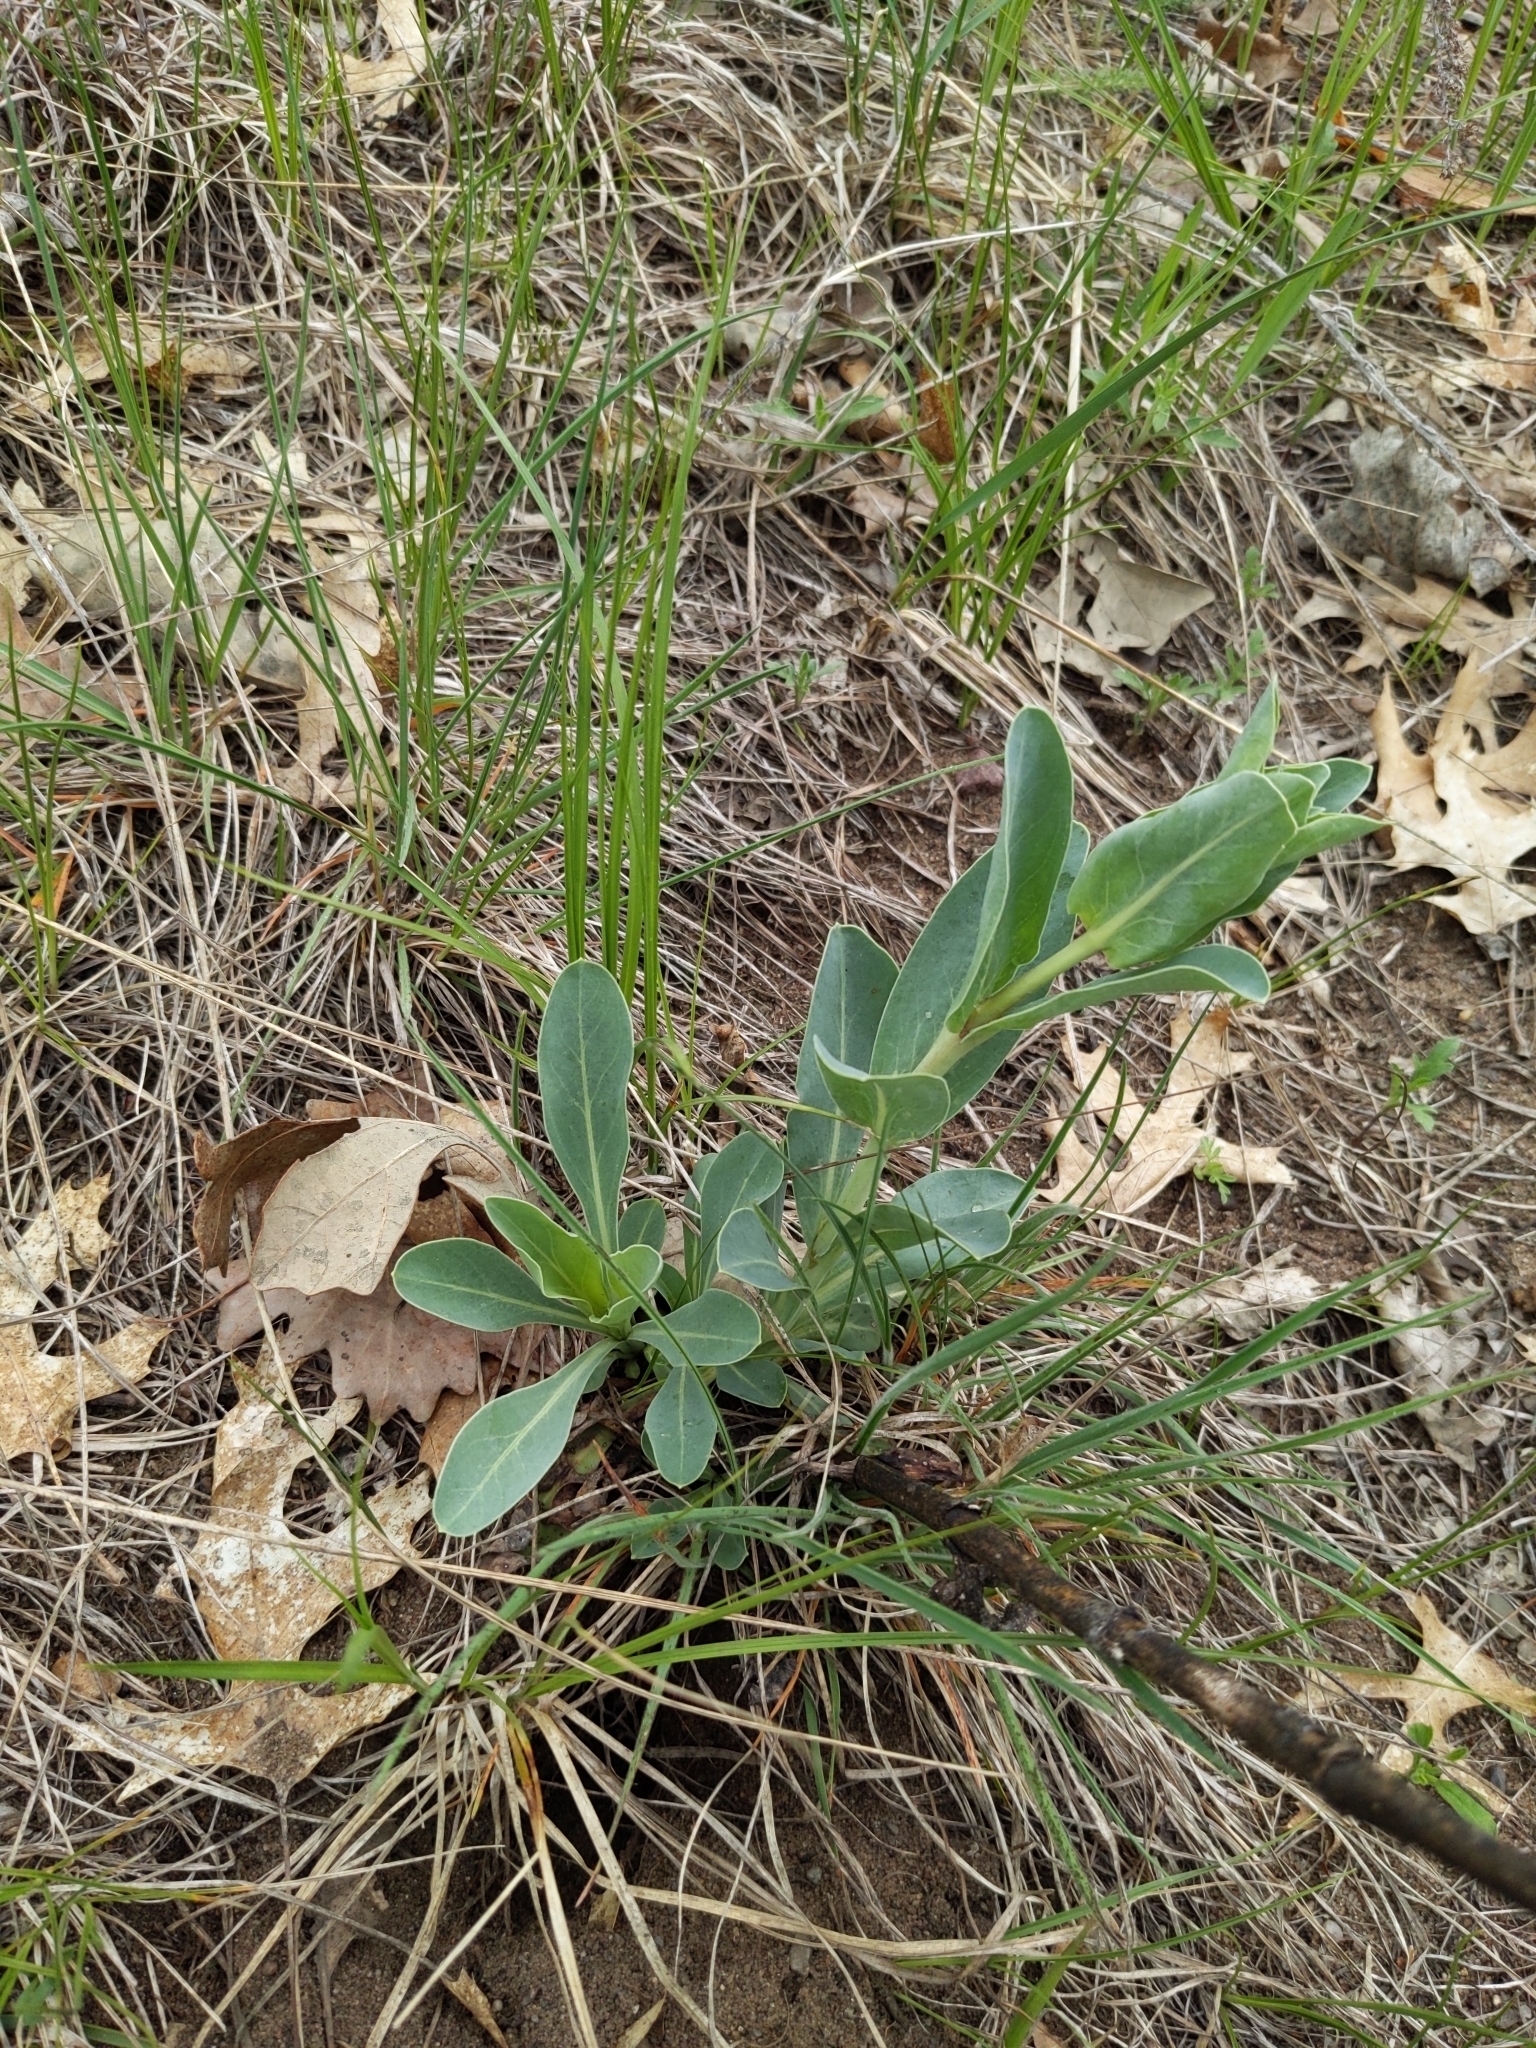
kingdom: Plantae
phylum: Tracheophyta
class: Magnoliopsida
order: Lamiales
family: Plantaginaceae
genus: Penstemon
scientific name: Penstemon
